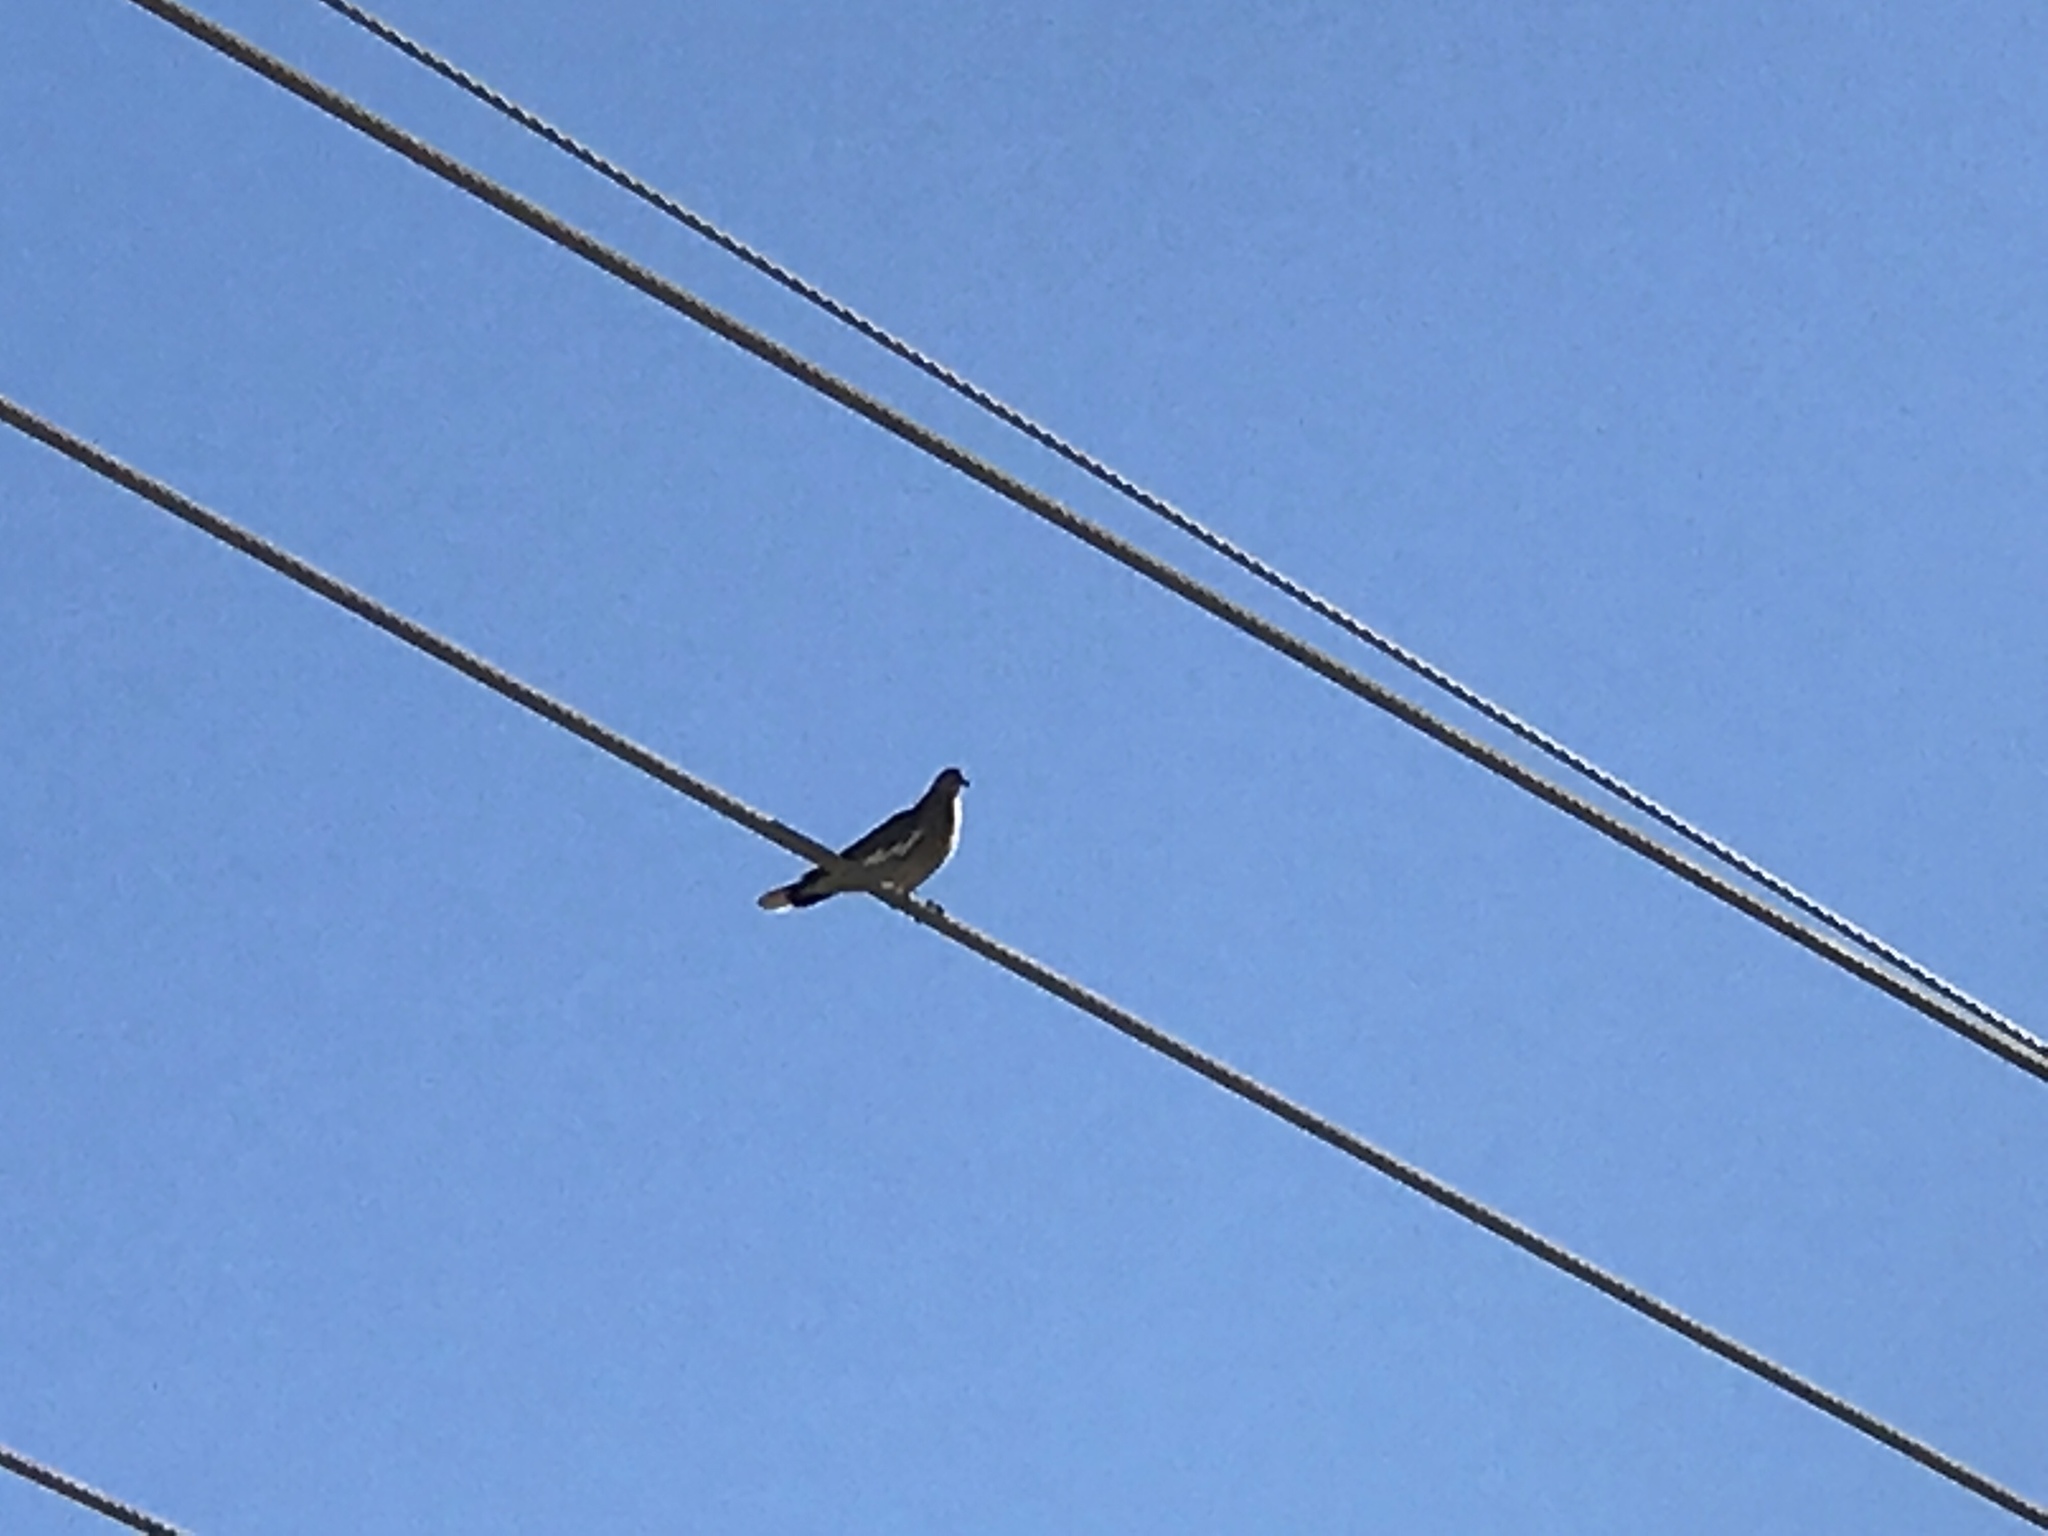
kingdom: Animalia
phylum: Chordata
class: Aves
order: Columbiformes
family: Columbidae
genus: Zenaida
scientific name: Zenaida asiatica
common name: White-winged dove
